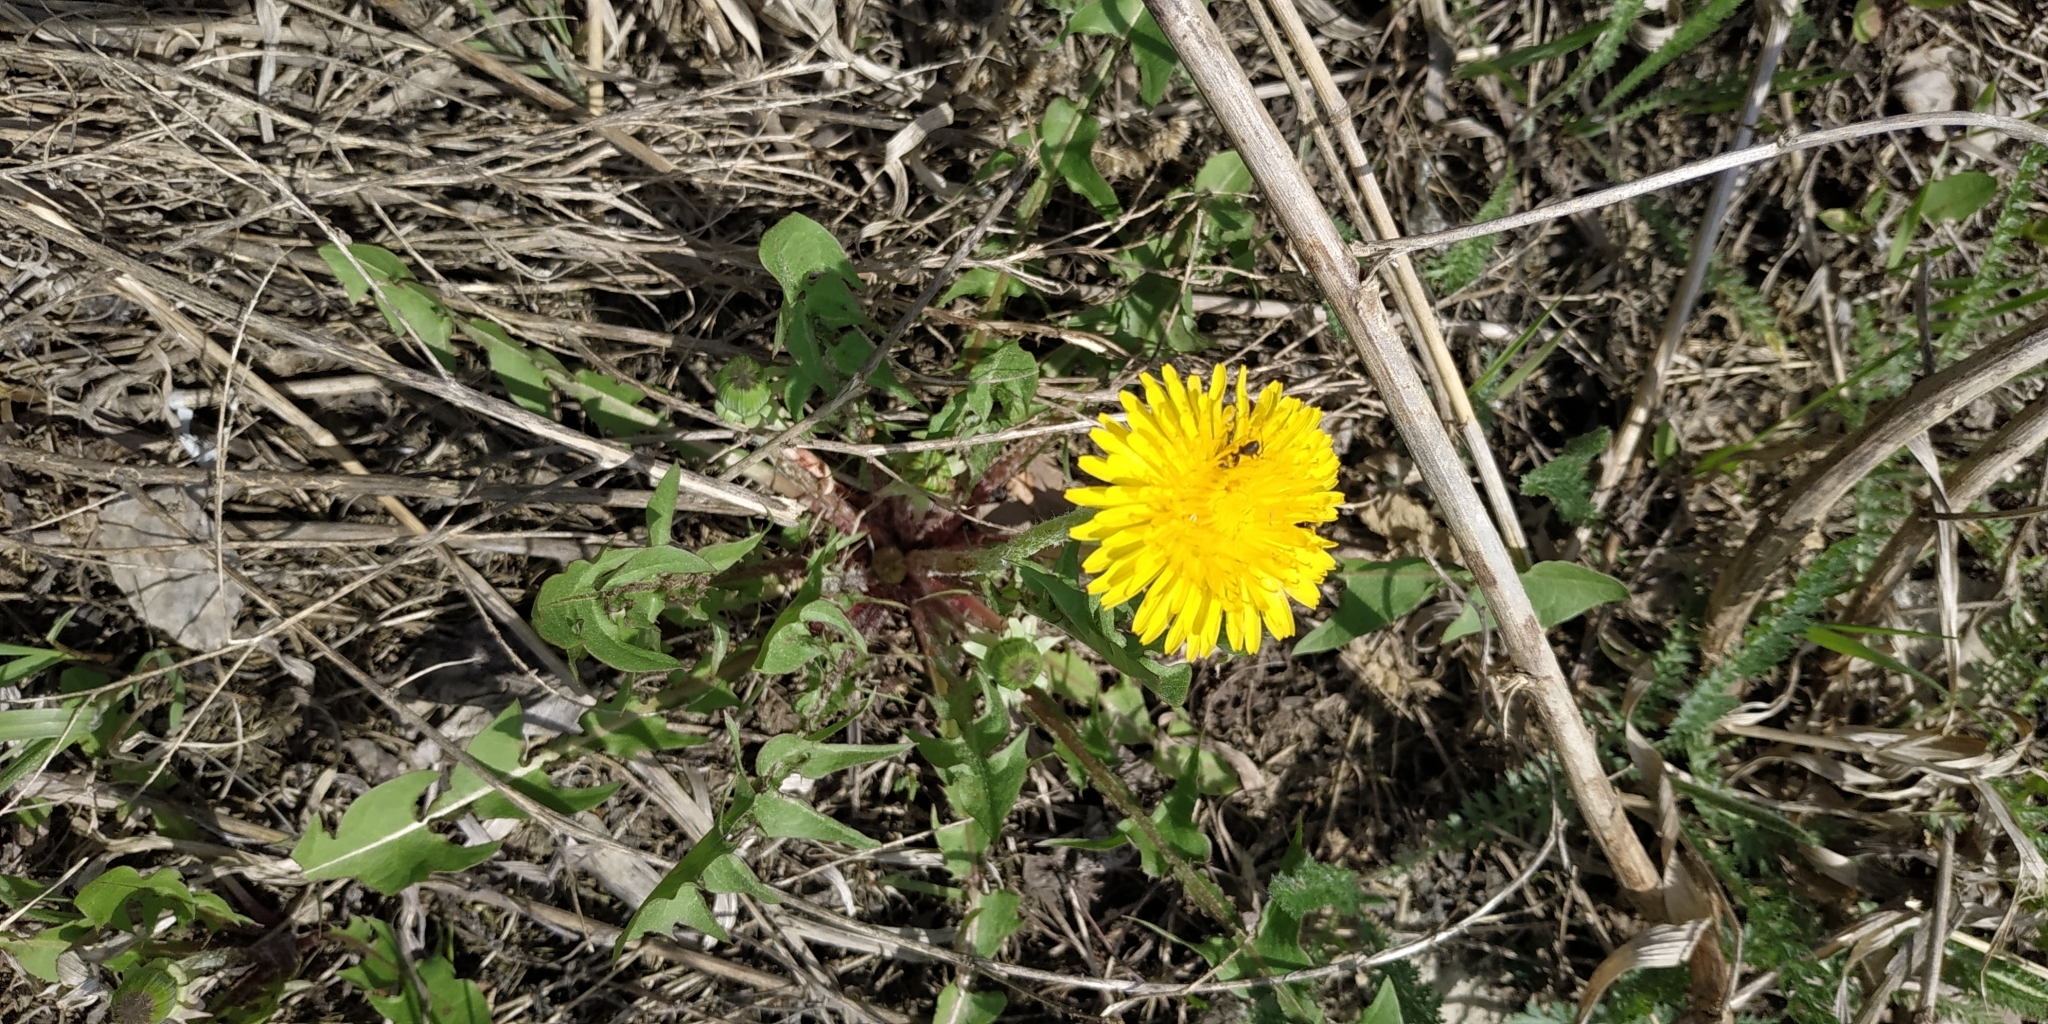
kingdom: Plantae
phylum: Tracheophyta
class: Magnoliopsida
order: Asterales
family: Asteraceae
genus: Taraxacum
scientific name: Taraxacum officinale
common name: Common dandelion
